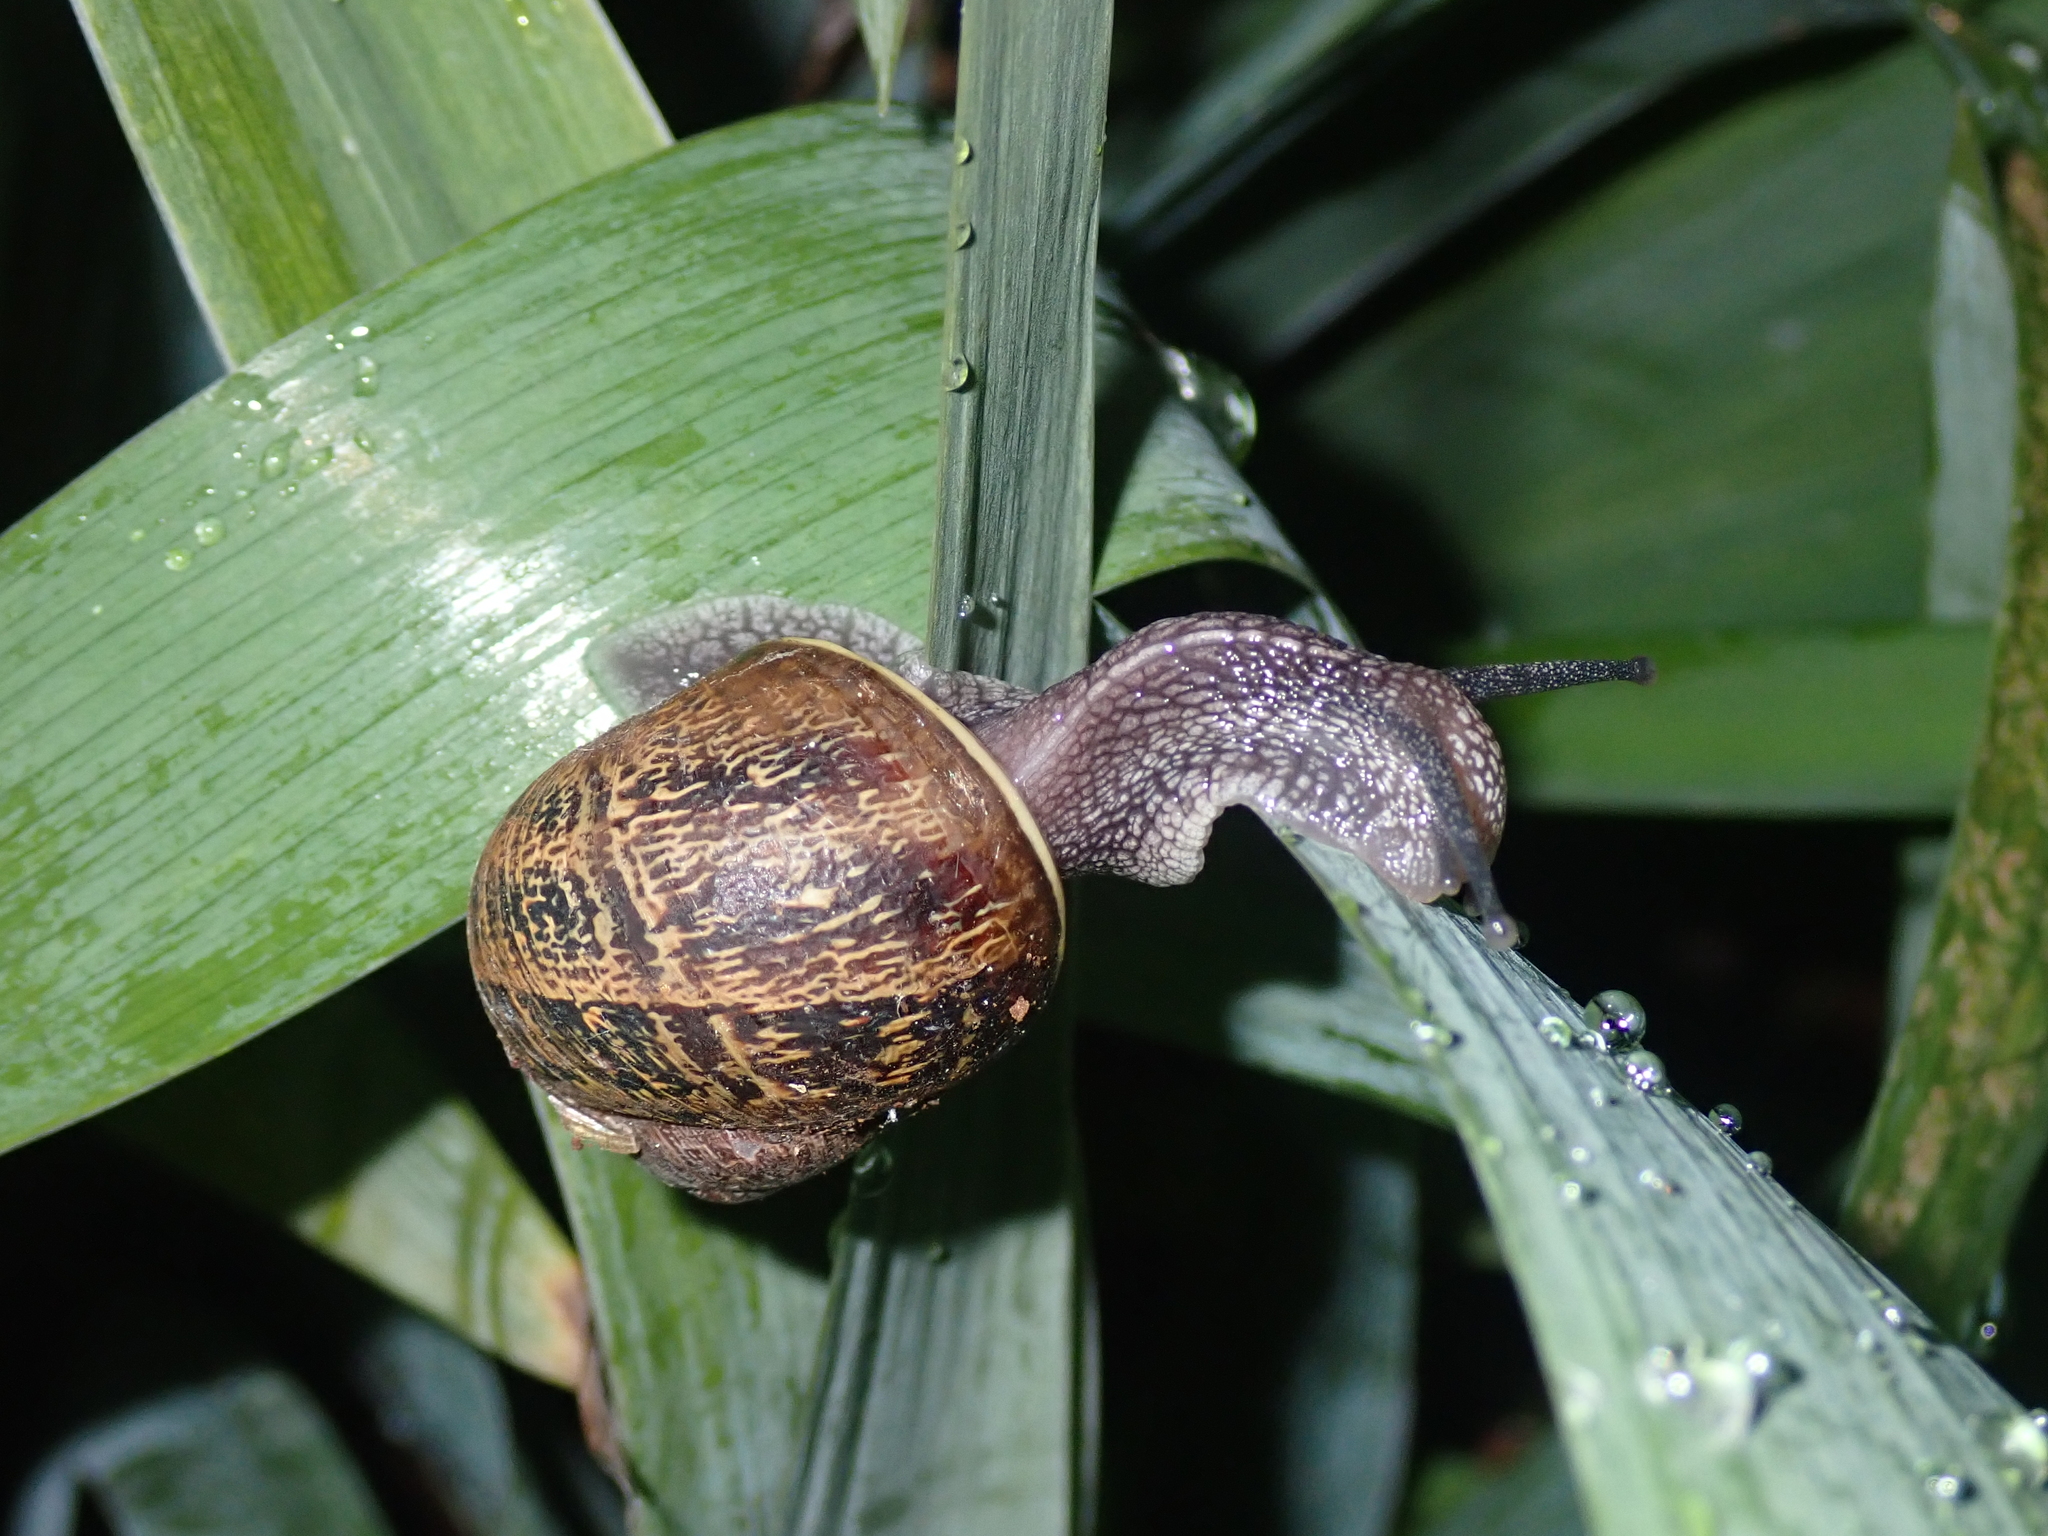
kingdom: Animalia
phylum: Mollusca
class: Gastropoda
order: Stylommatophora
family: Helicidae
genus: Cornu
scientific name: Cornu aspersum
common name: Brown garden snail
